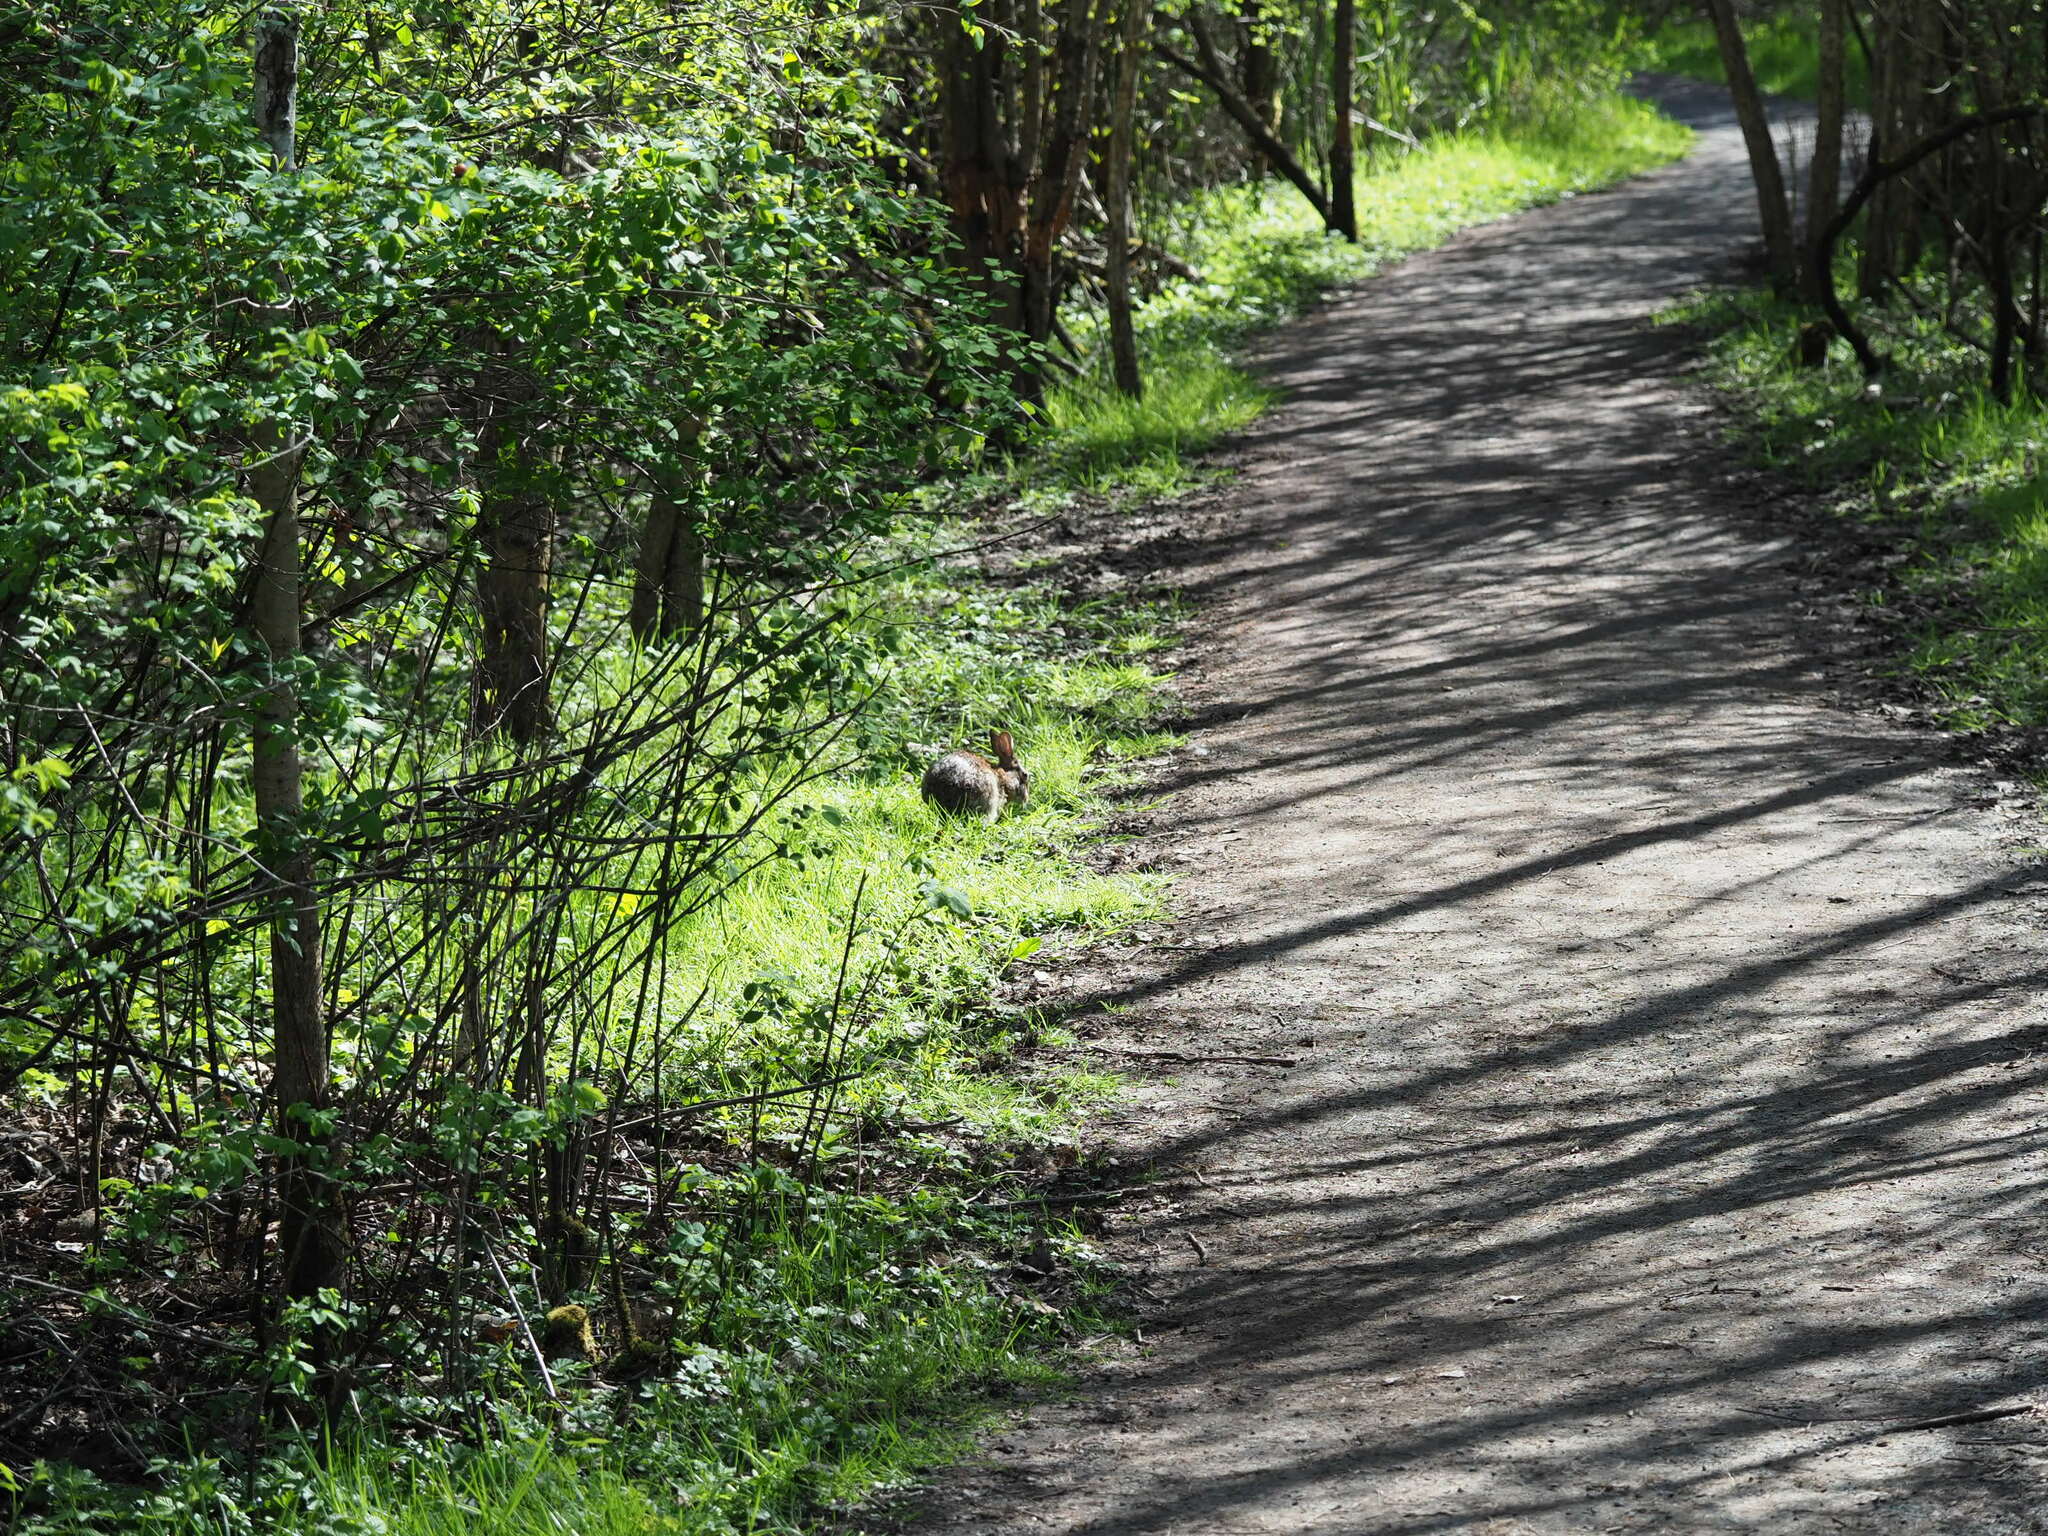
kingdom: Animalia
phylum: Chordata
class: Mammalia
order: Lagomorpha
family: Leporidae
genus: Sylvilagus
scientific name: Sylvilagus floridanus
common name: Eastern cottontail
